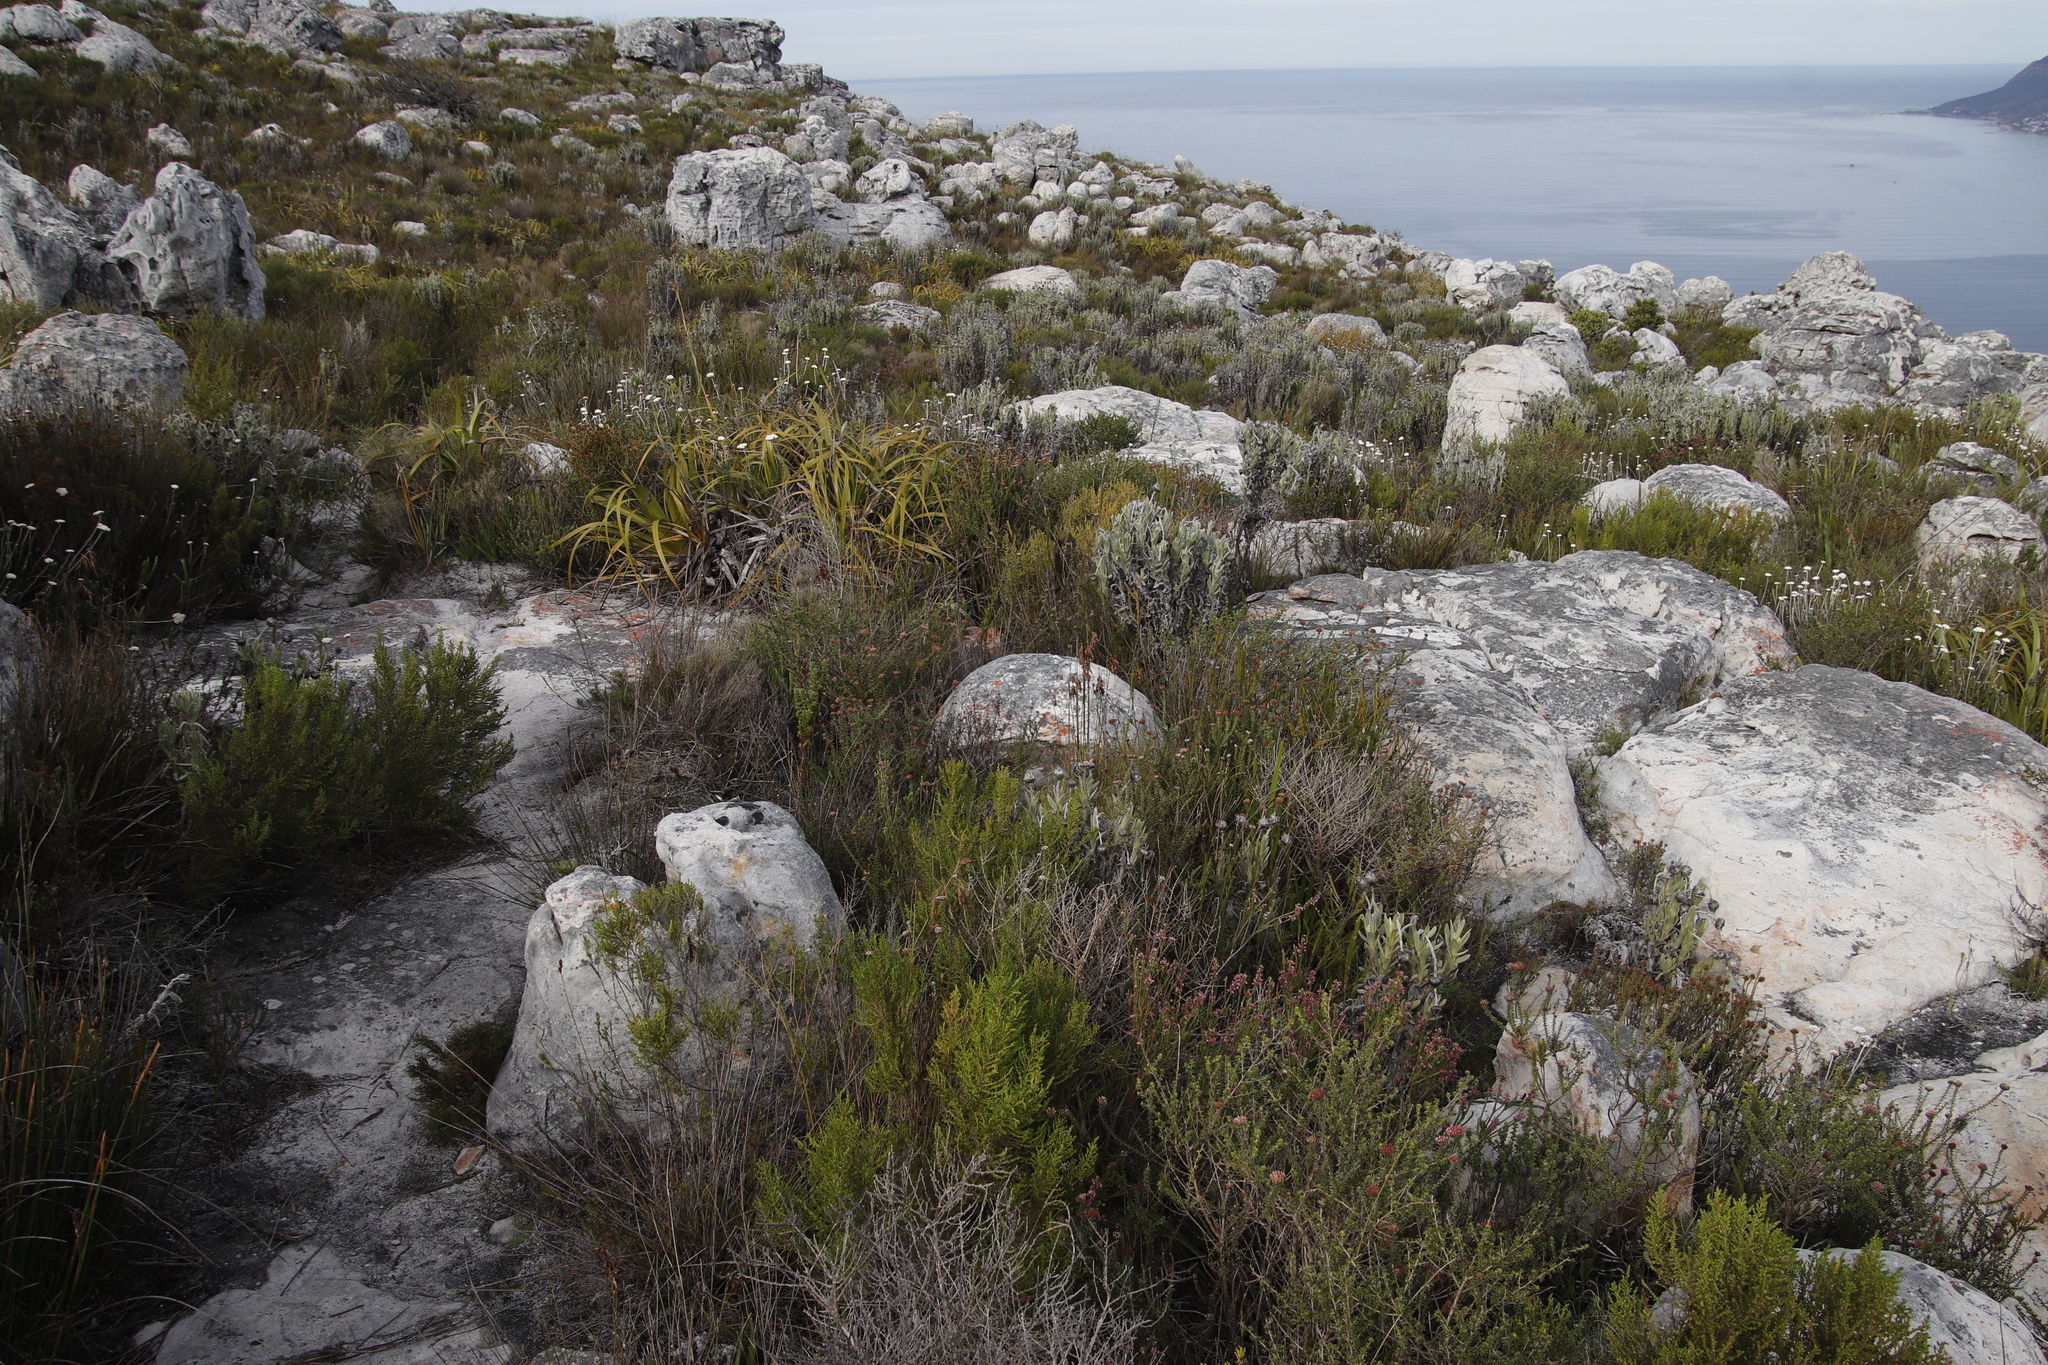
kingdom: Plantae
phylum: Tracheophyta
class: Liliopsida
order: Poales
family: Cyperaceae
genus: Tetraria
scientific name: Tetraria thermalis
